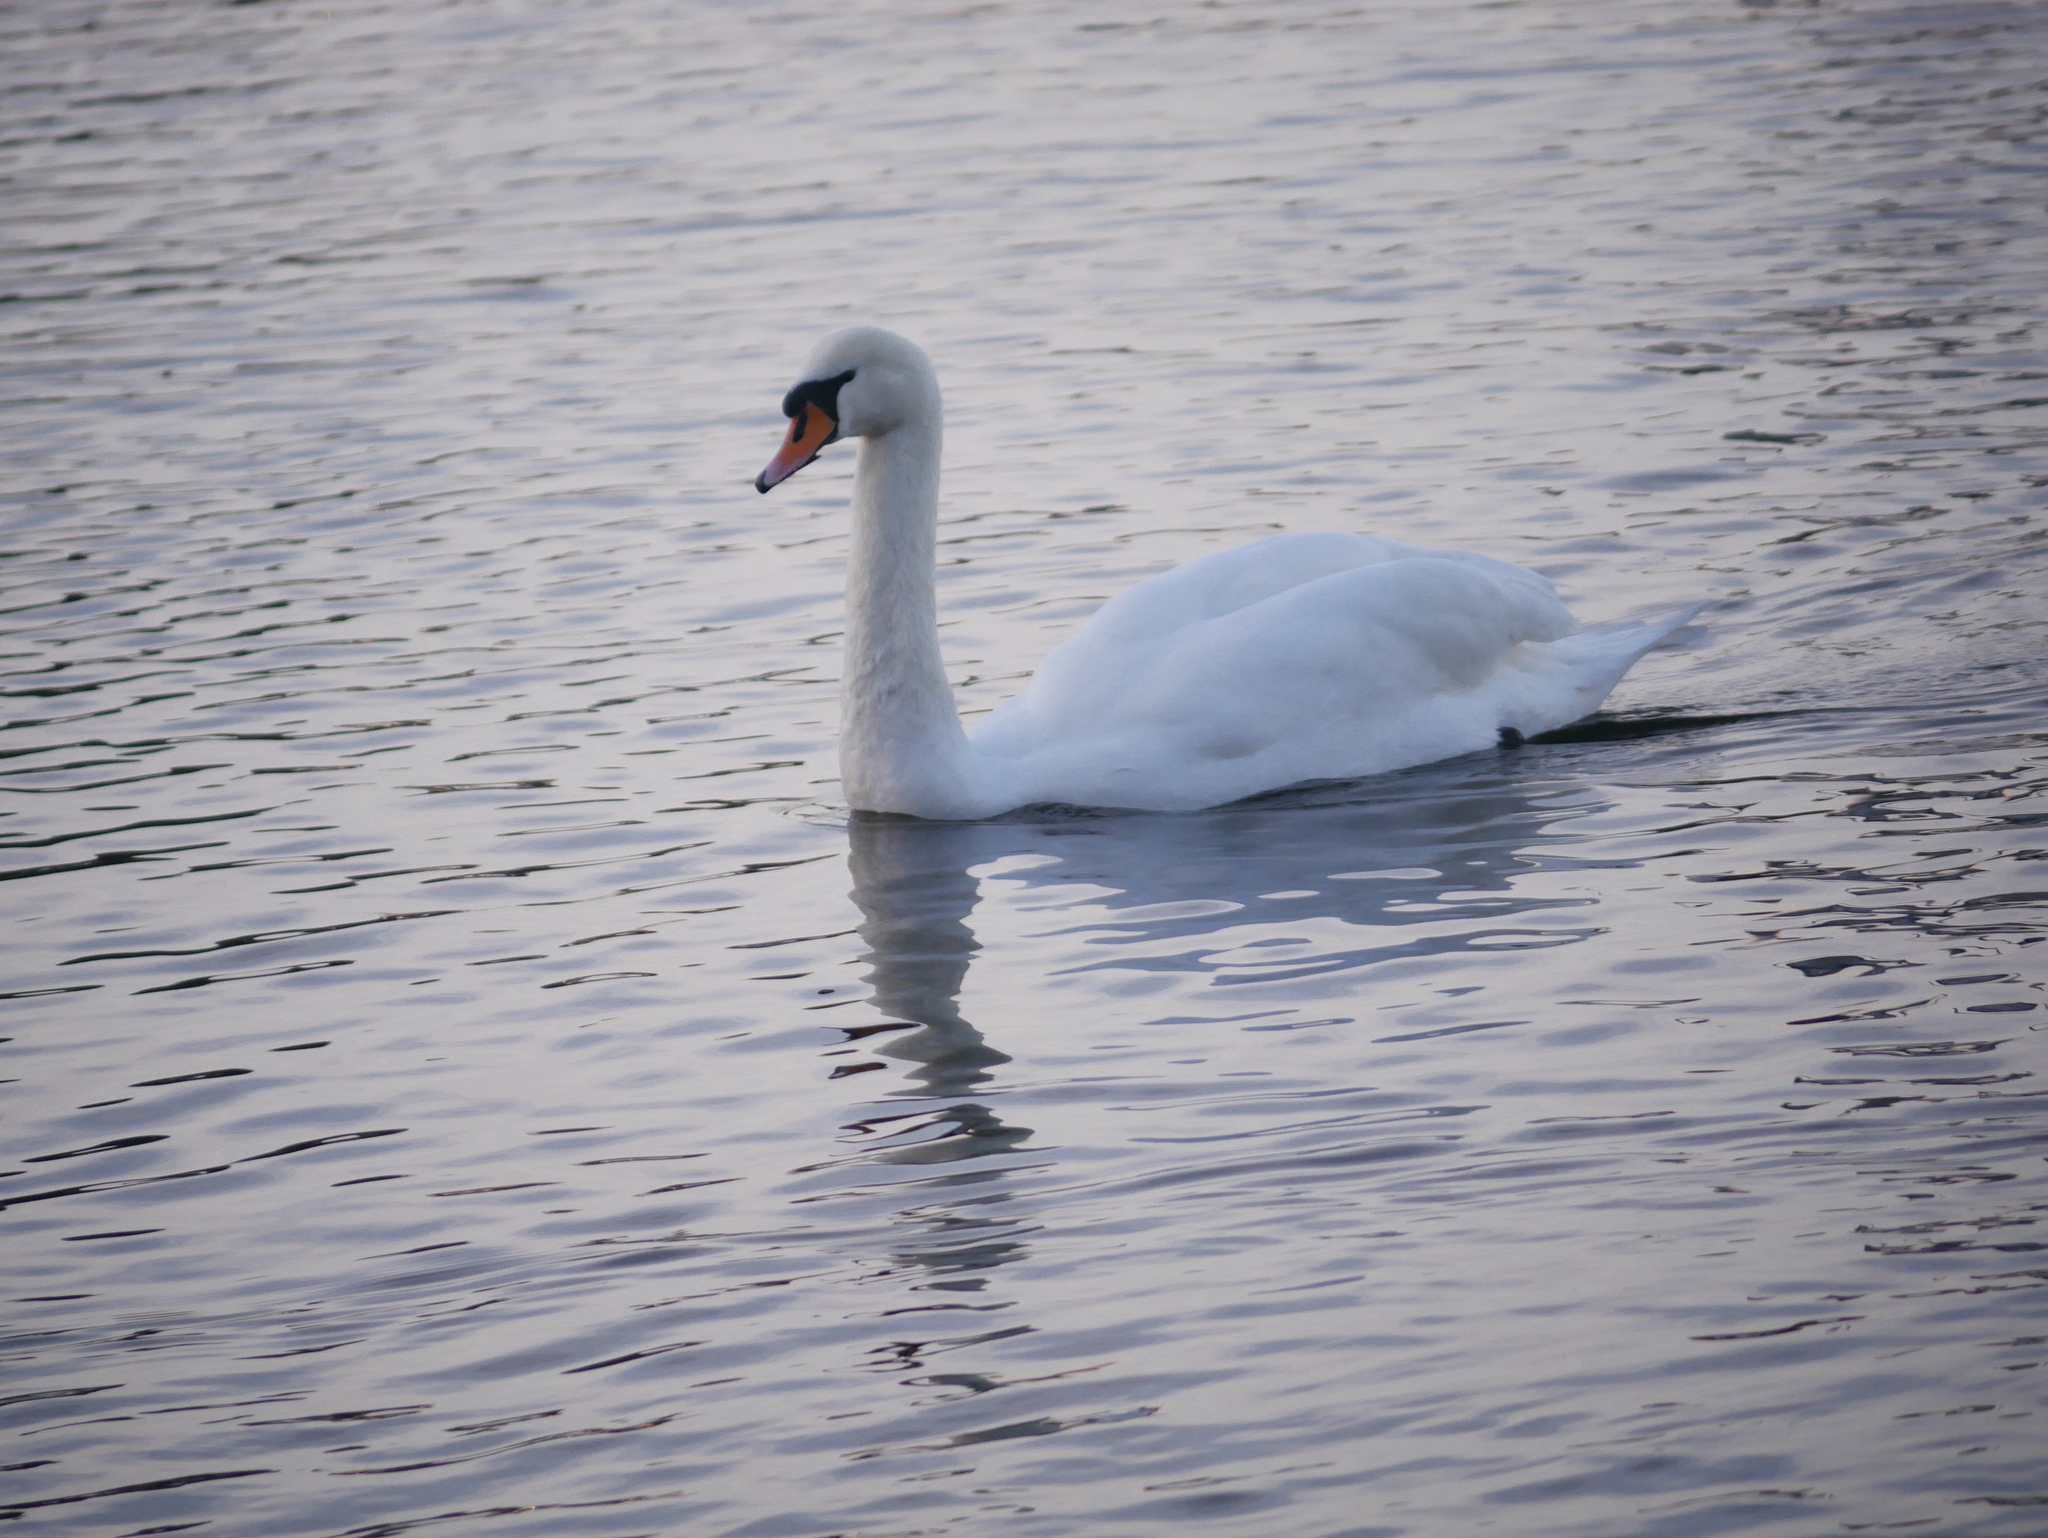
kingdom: Animalia
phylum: Chordata
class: Aves
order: Anseriformes
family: Anatidae
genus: Cygnus
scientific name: Cygnus olor
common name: Mute swan
